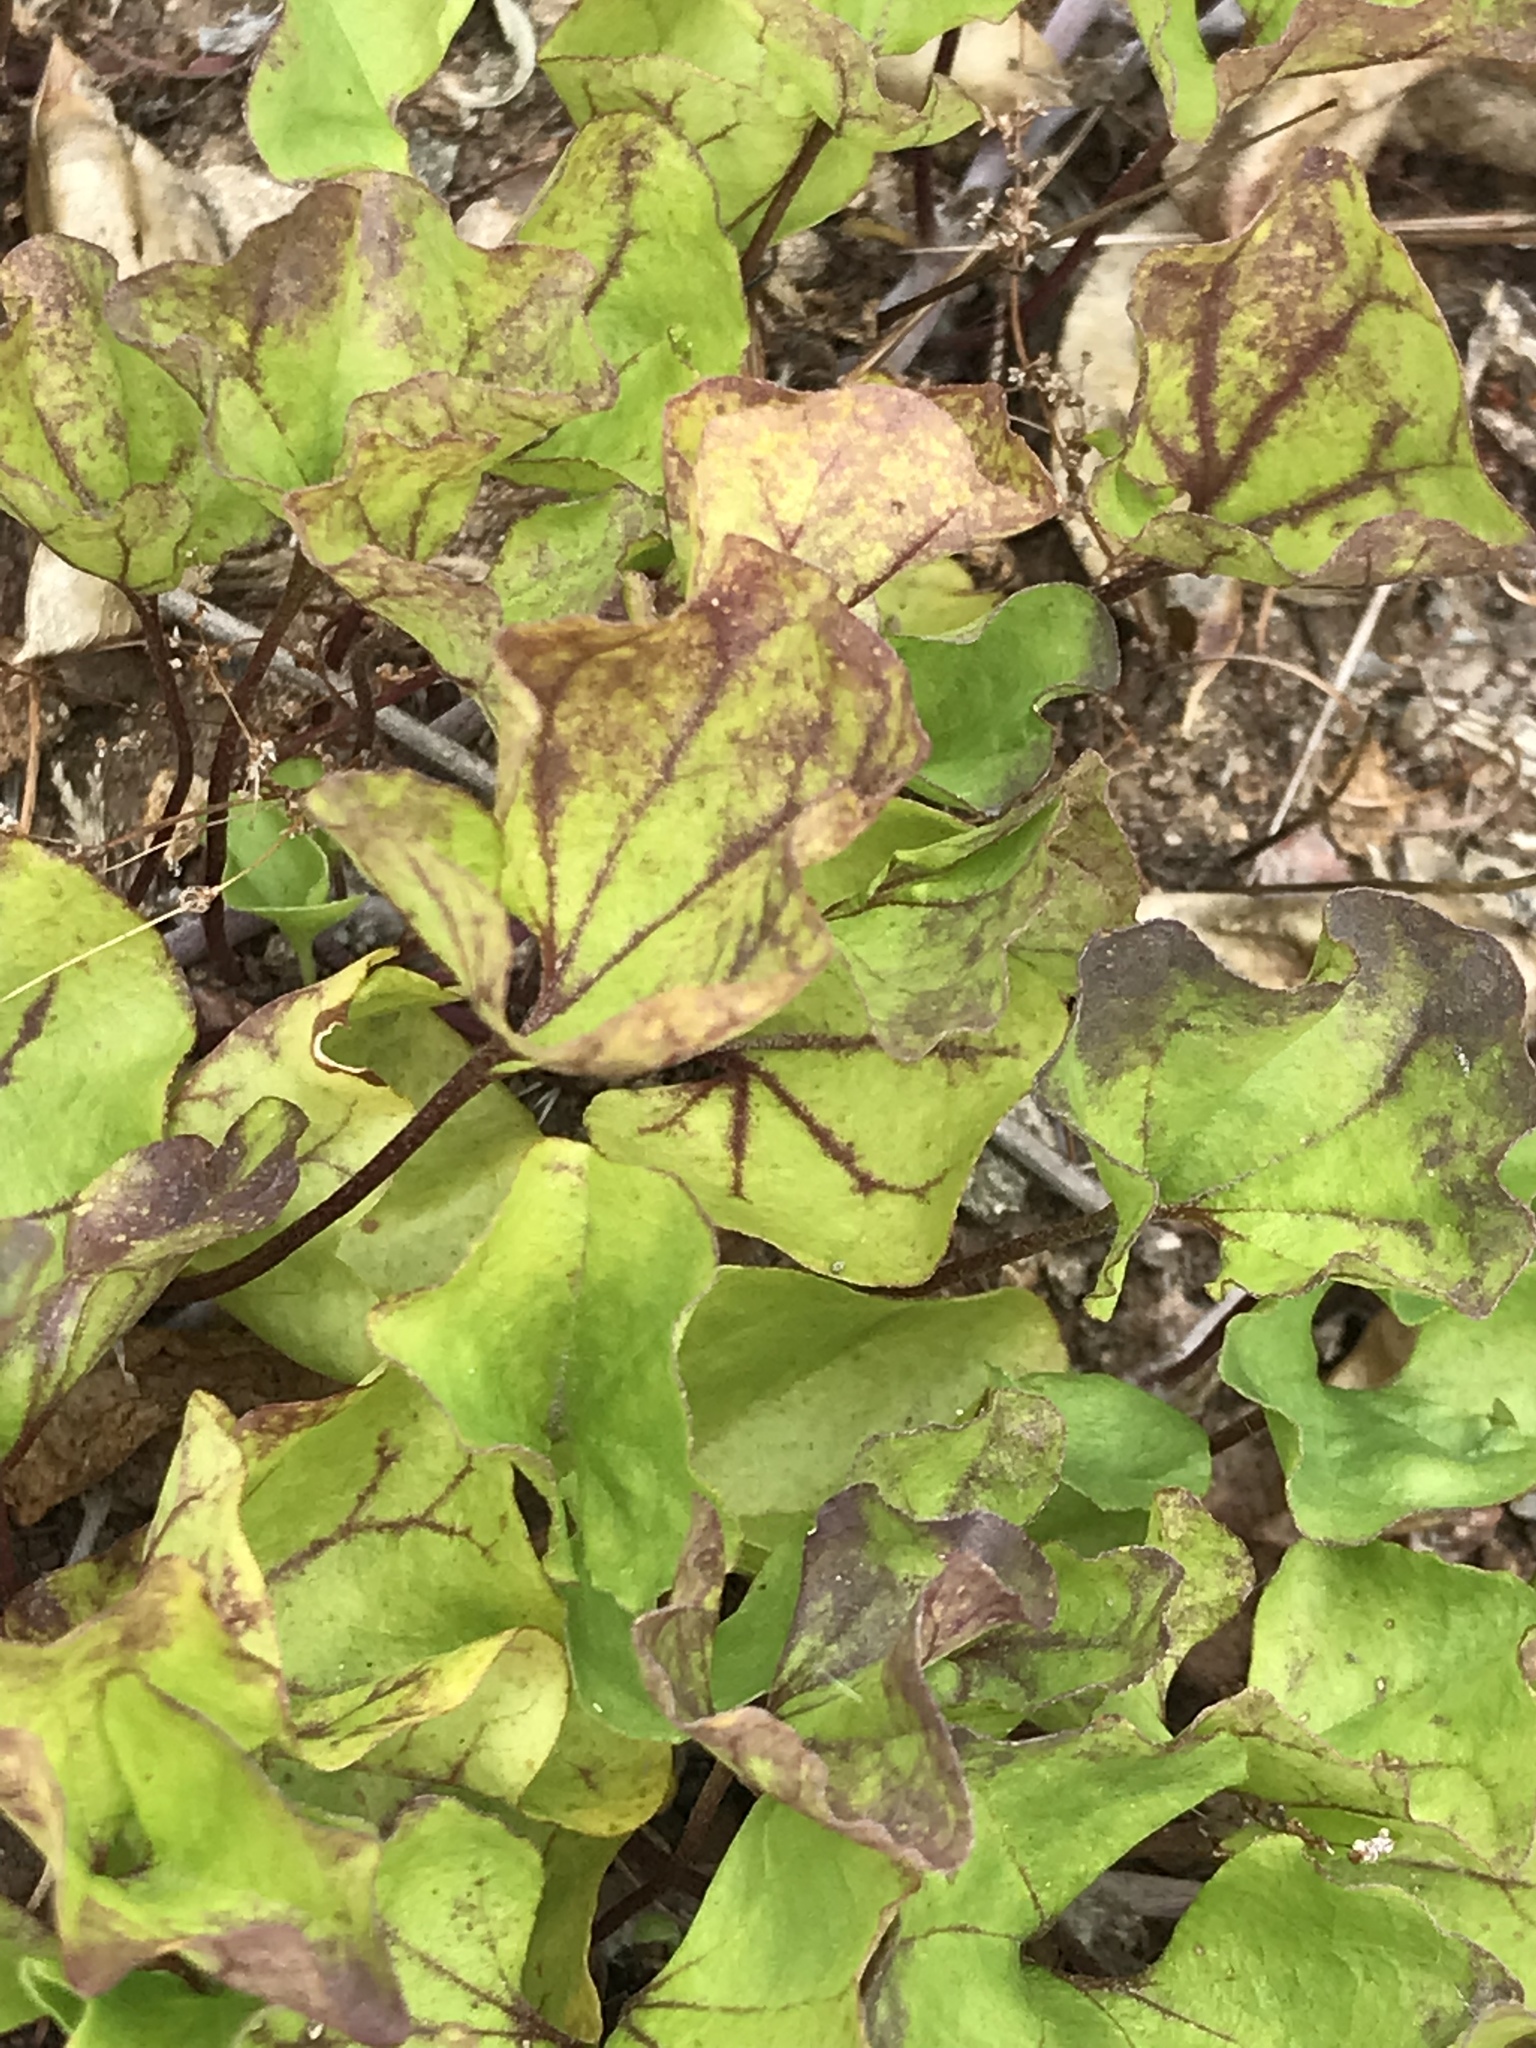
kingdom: Plantae
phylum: Tracheophyta
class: Magnoliopsida
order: Solanales
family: Convolvulaceae
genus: Dichondra
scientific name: Dichondra occidentalis
